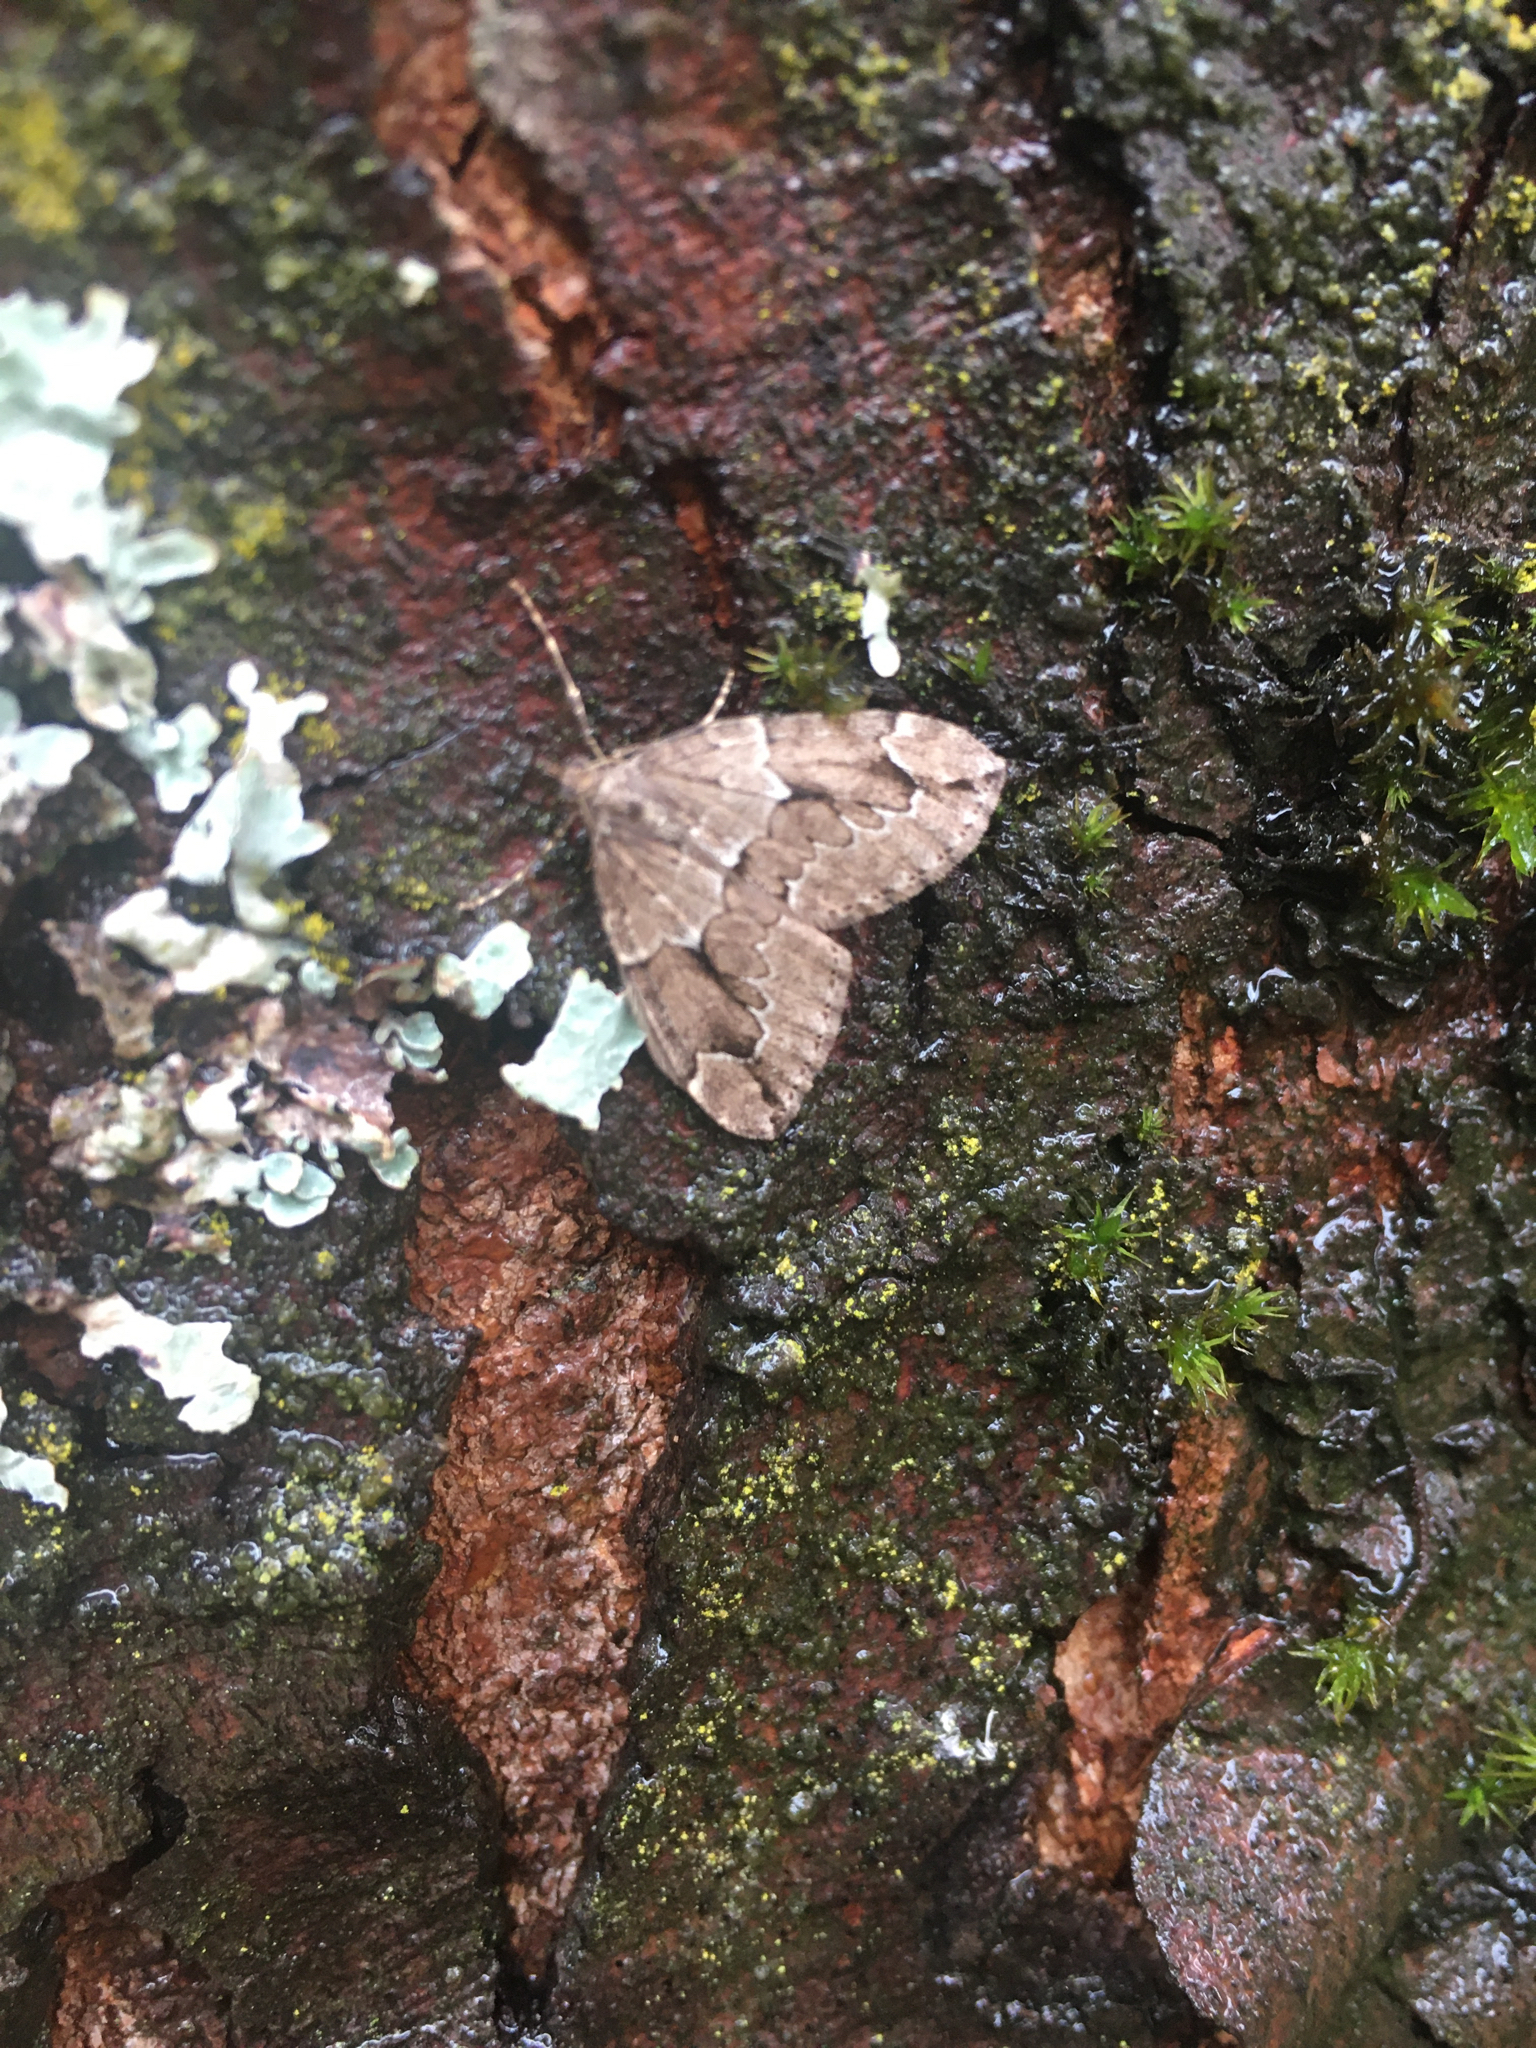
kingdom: Animalia
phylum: Arthropoda
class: Insecta
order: Lepidoptera
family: Geometridae
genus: Thera
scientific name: Thera juniperata
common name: Juniper carpet
